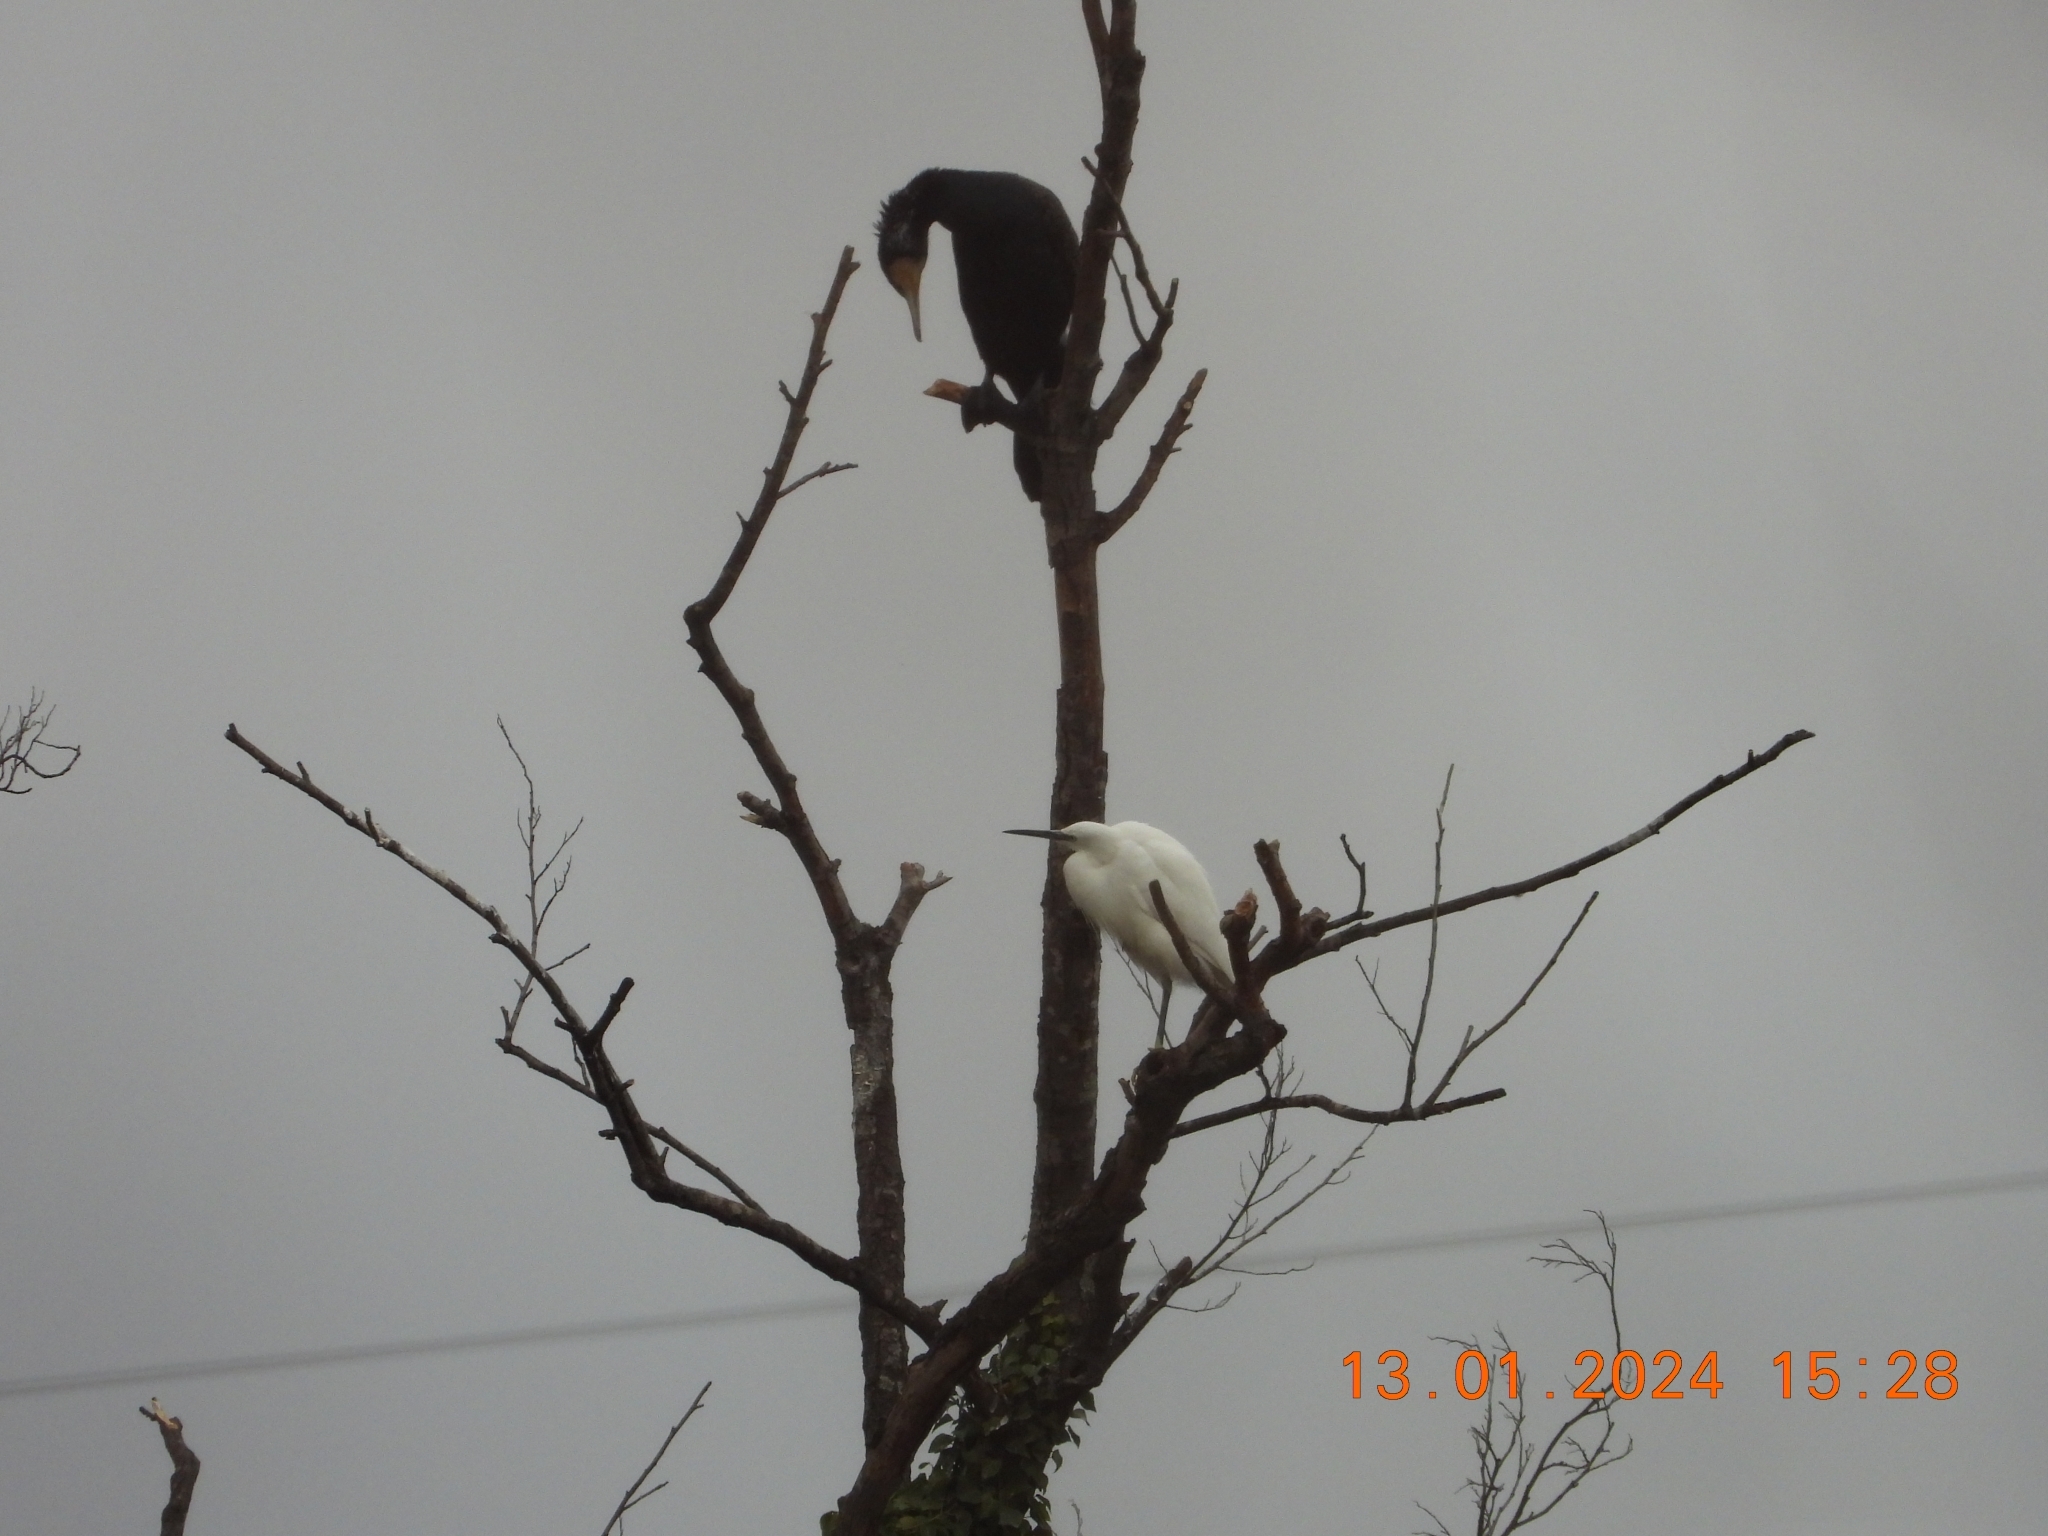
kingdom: Animalia
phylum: Chordata
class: Aves
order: Pelecaniformes
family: Ardeidae
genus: Egretta
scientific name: Egretta garzetta
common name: Little egret
